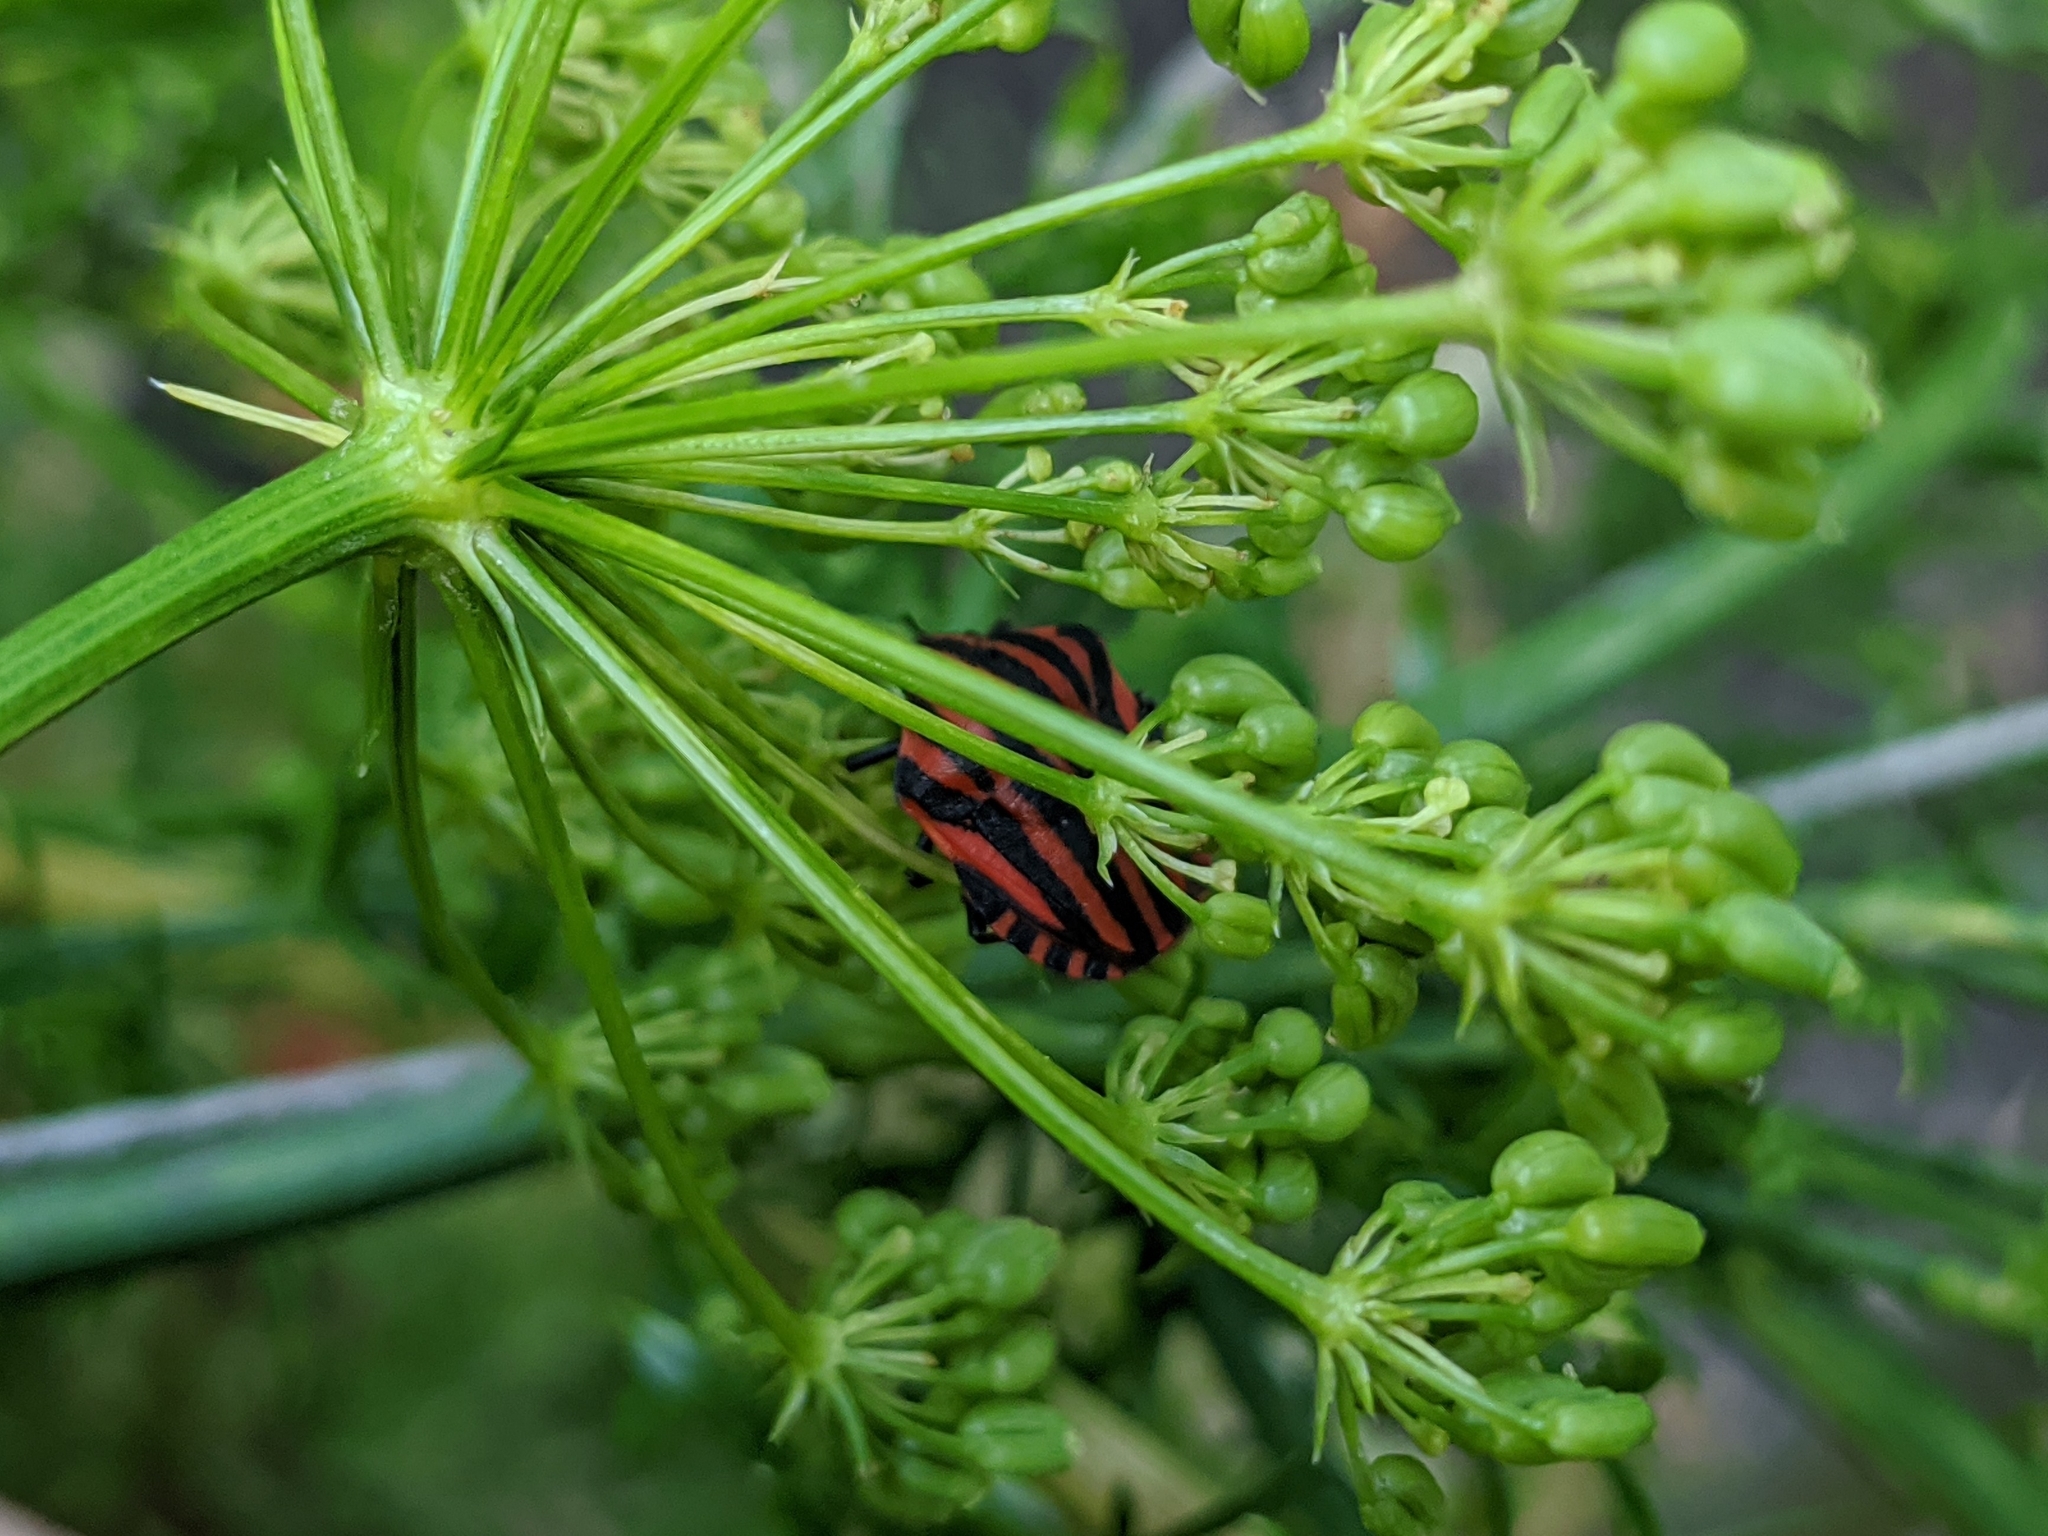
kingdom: Animalia
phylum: Arthropoda
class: Insecta
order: Hemiptera
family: Pentatomidae
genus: Graphosoma
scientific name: Graphosoma italicum
